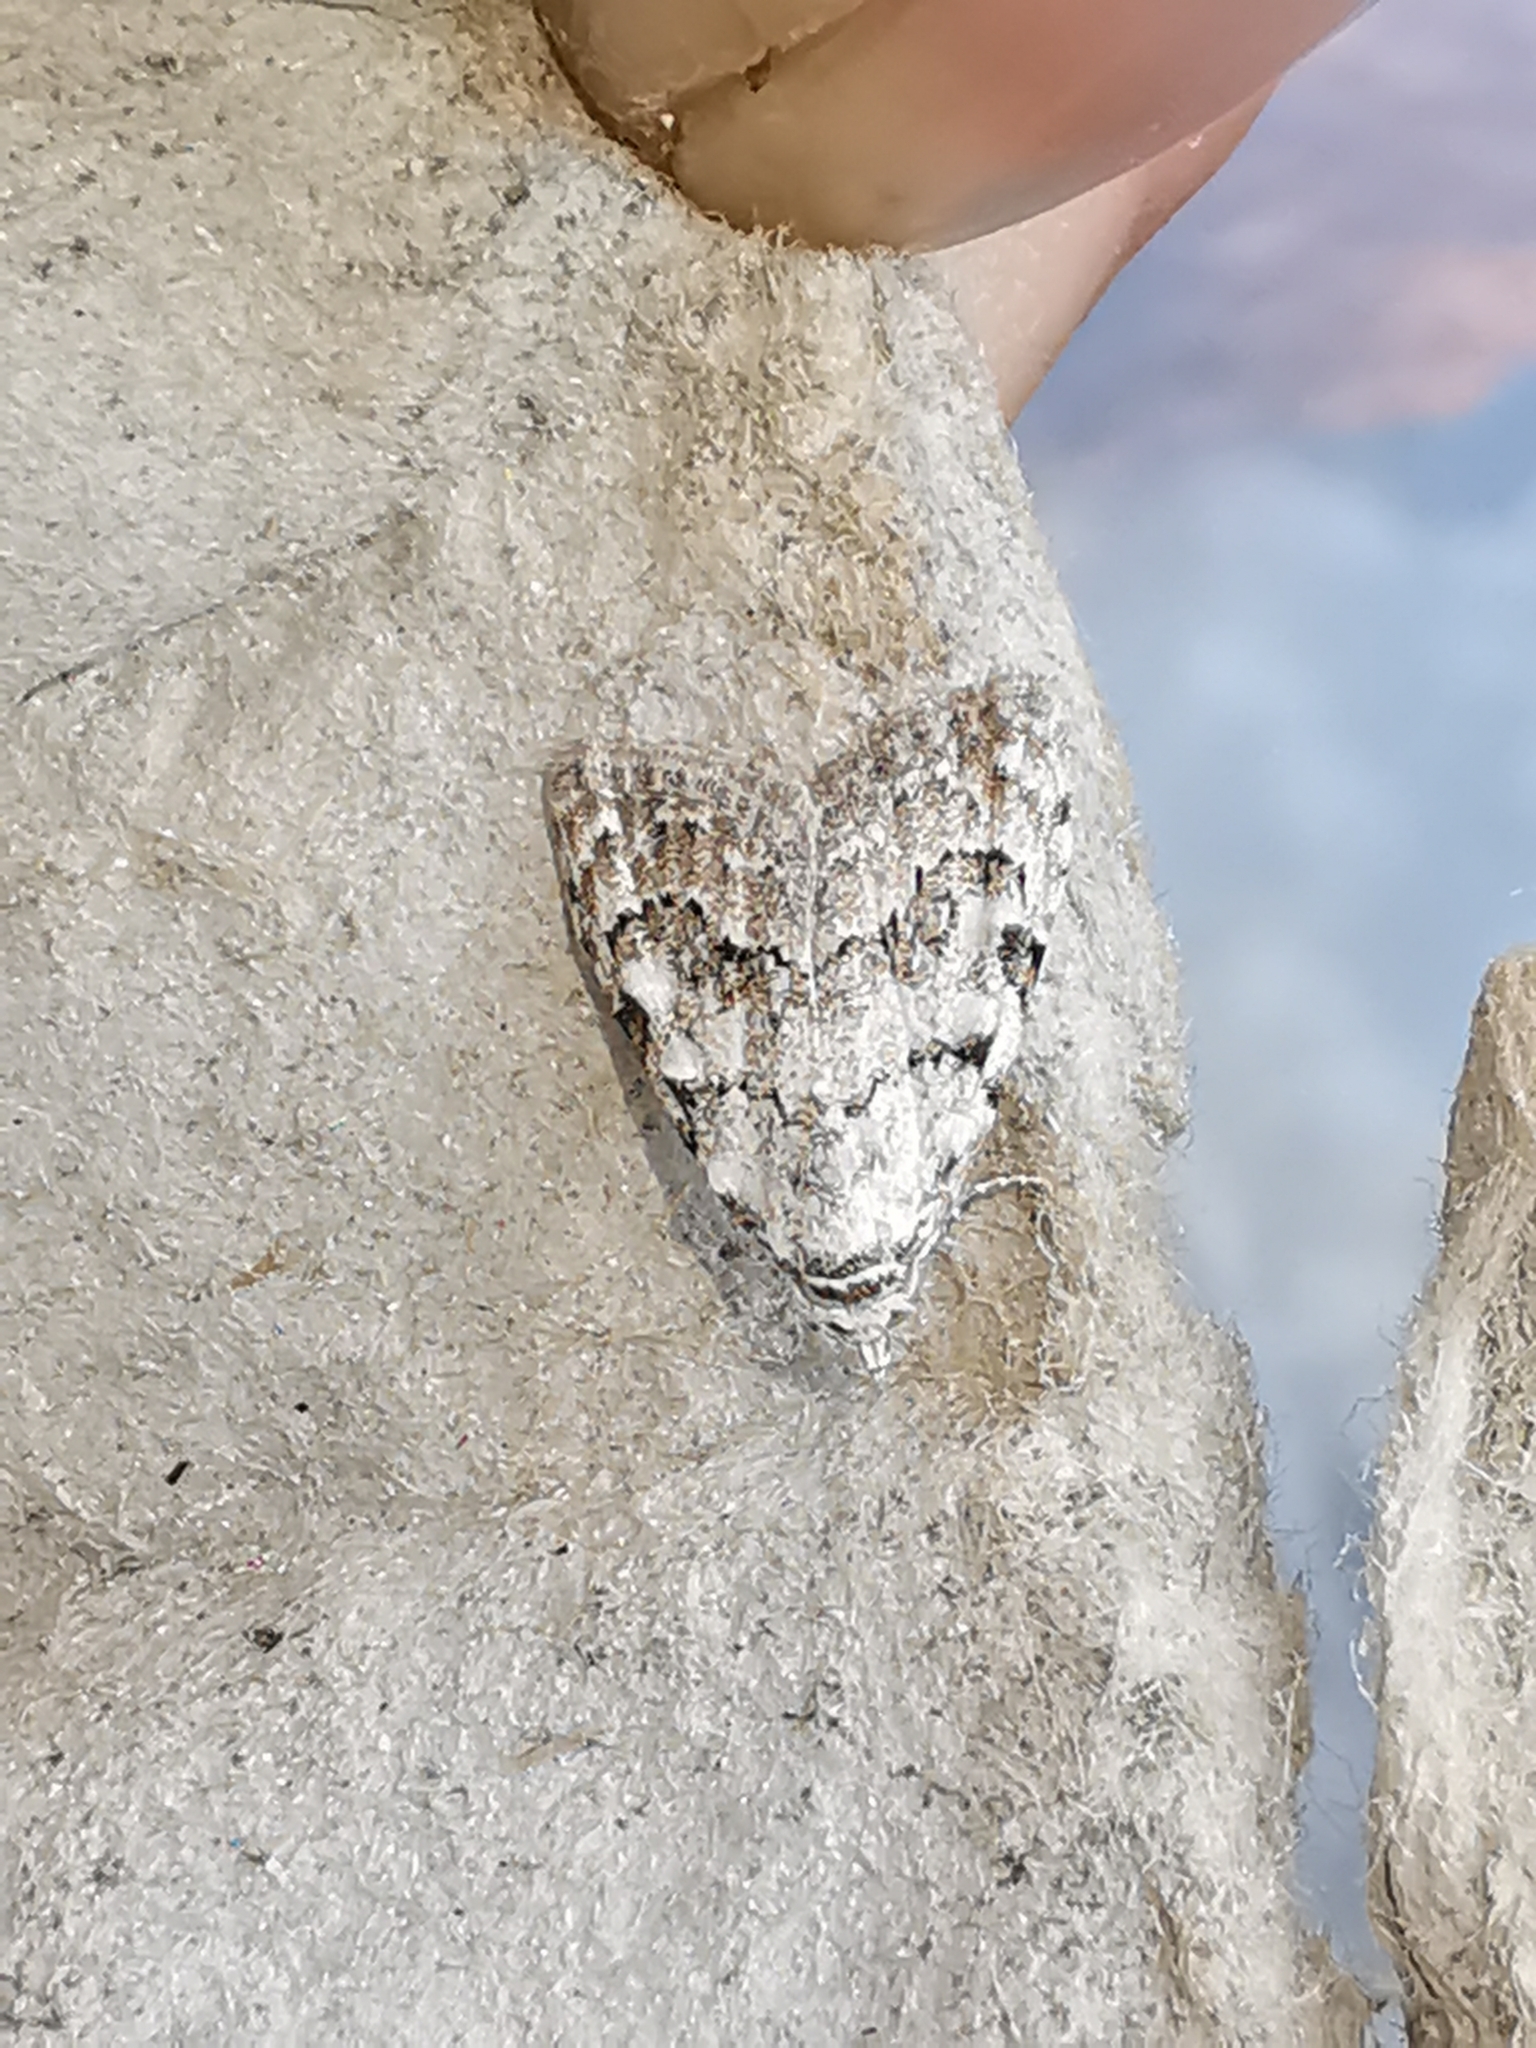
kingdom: Animalia
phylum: Arthropoda
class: Insecta
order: Lepidoptera
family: Nolidae
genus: Nola
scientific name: Nola confusalis
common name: Least black arches
